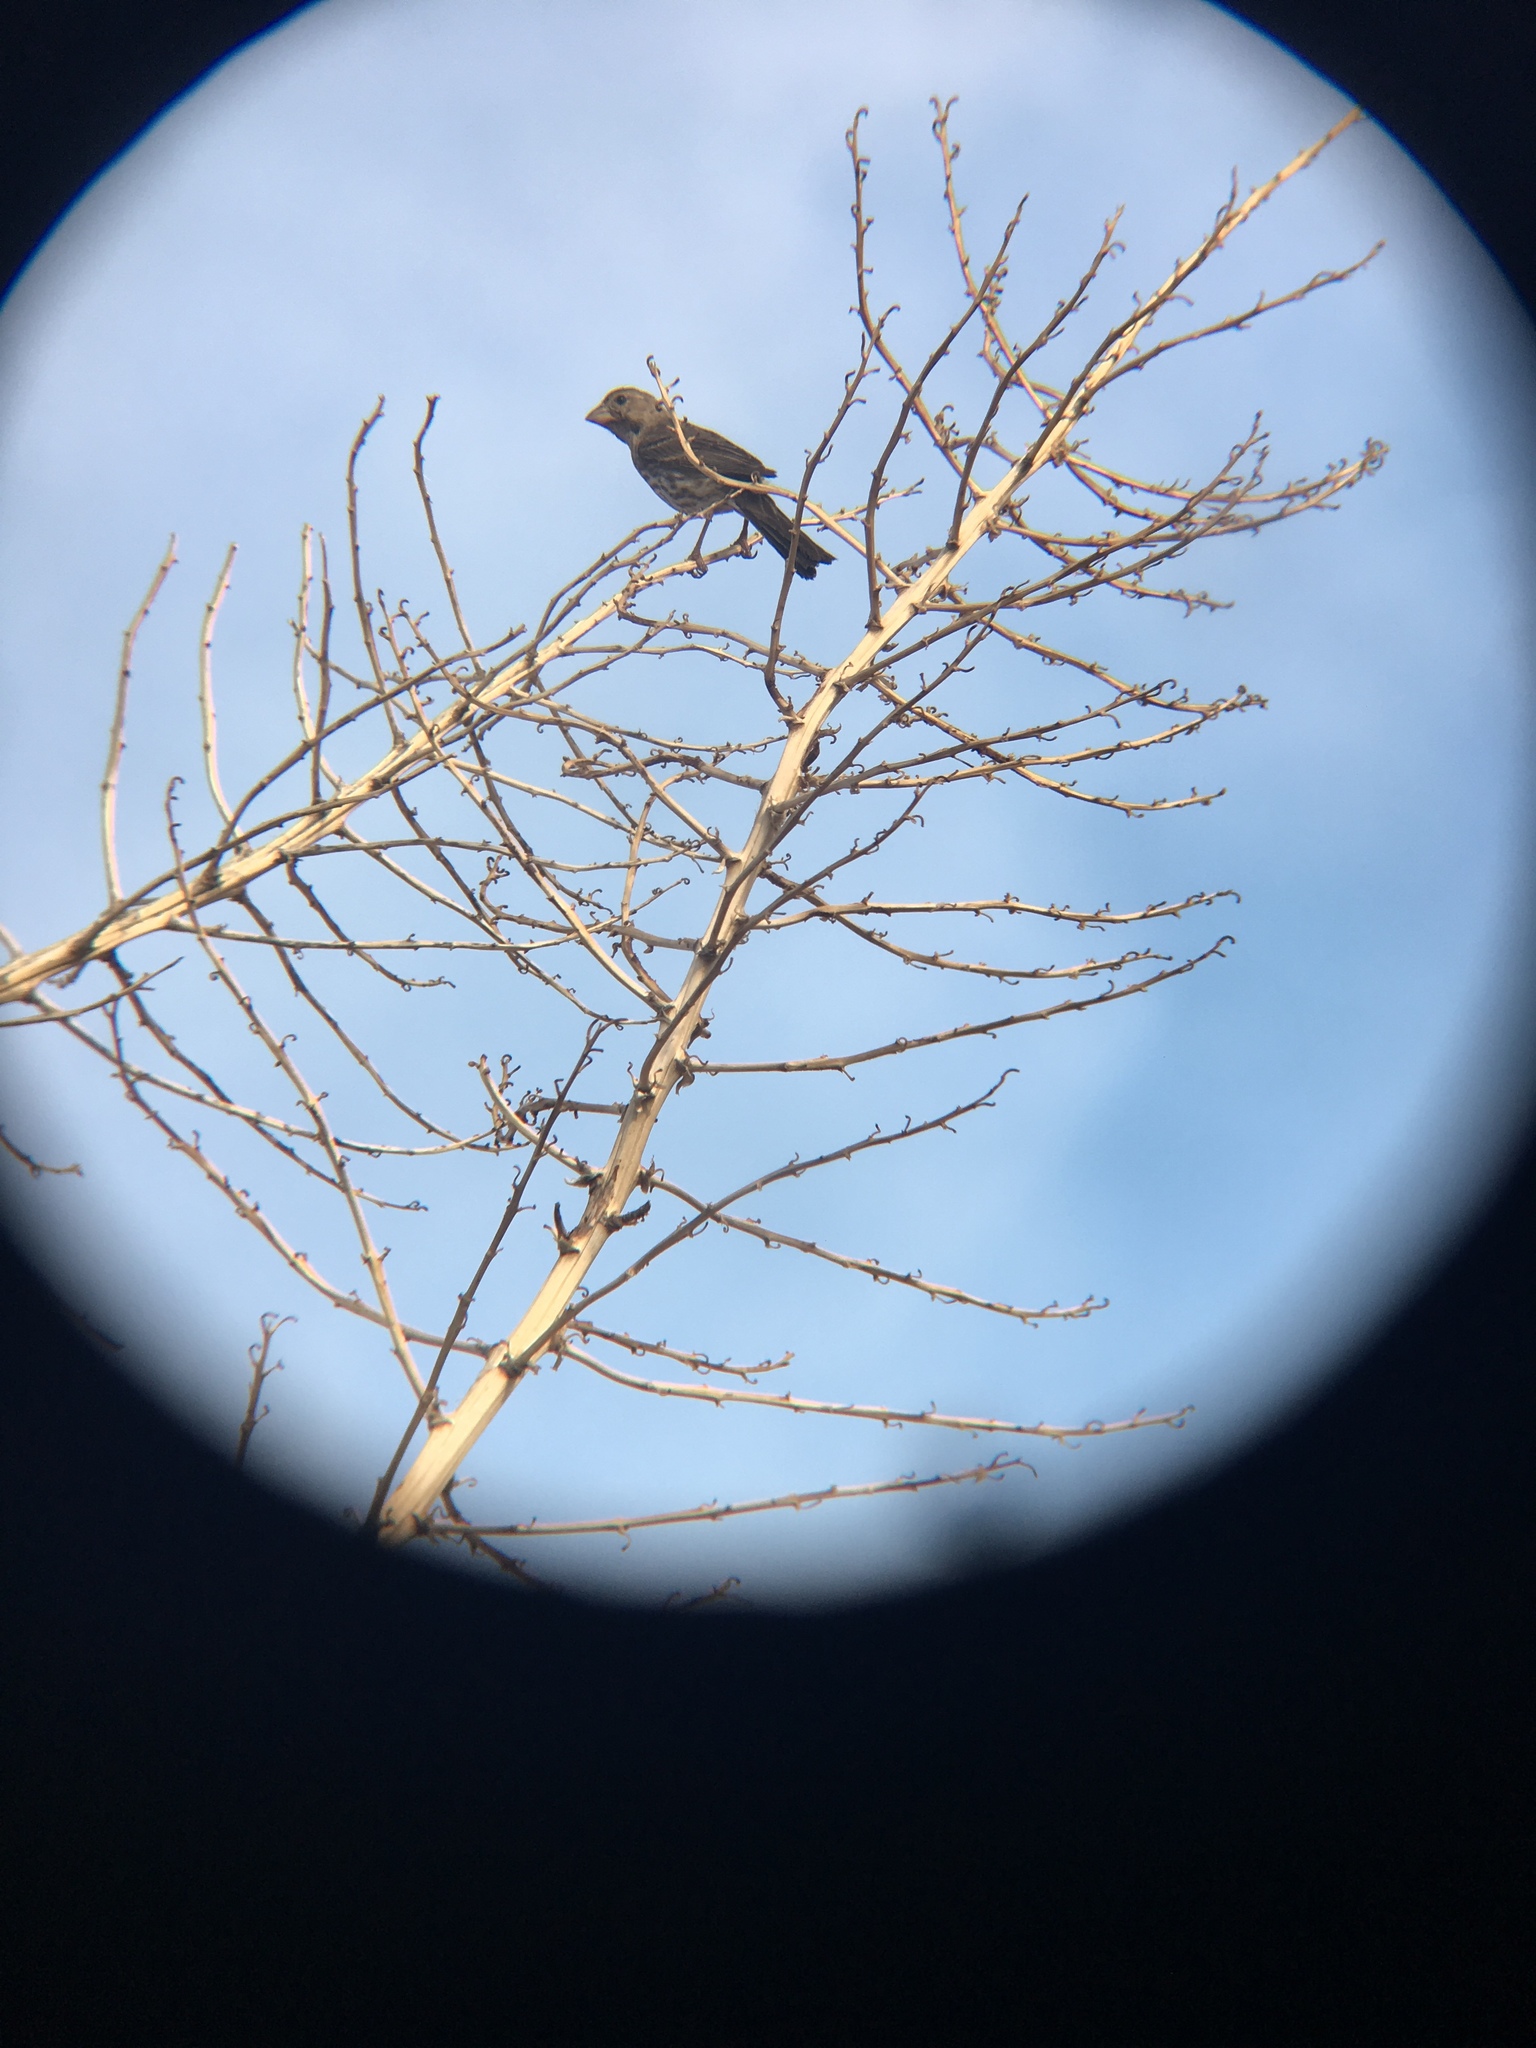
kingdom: Animalia
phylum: Chordata
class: Aves
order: Passeriformes
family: Fringillidae
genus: Haemorhous
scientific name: Haemorhous mexicanus
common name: House finch
